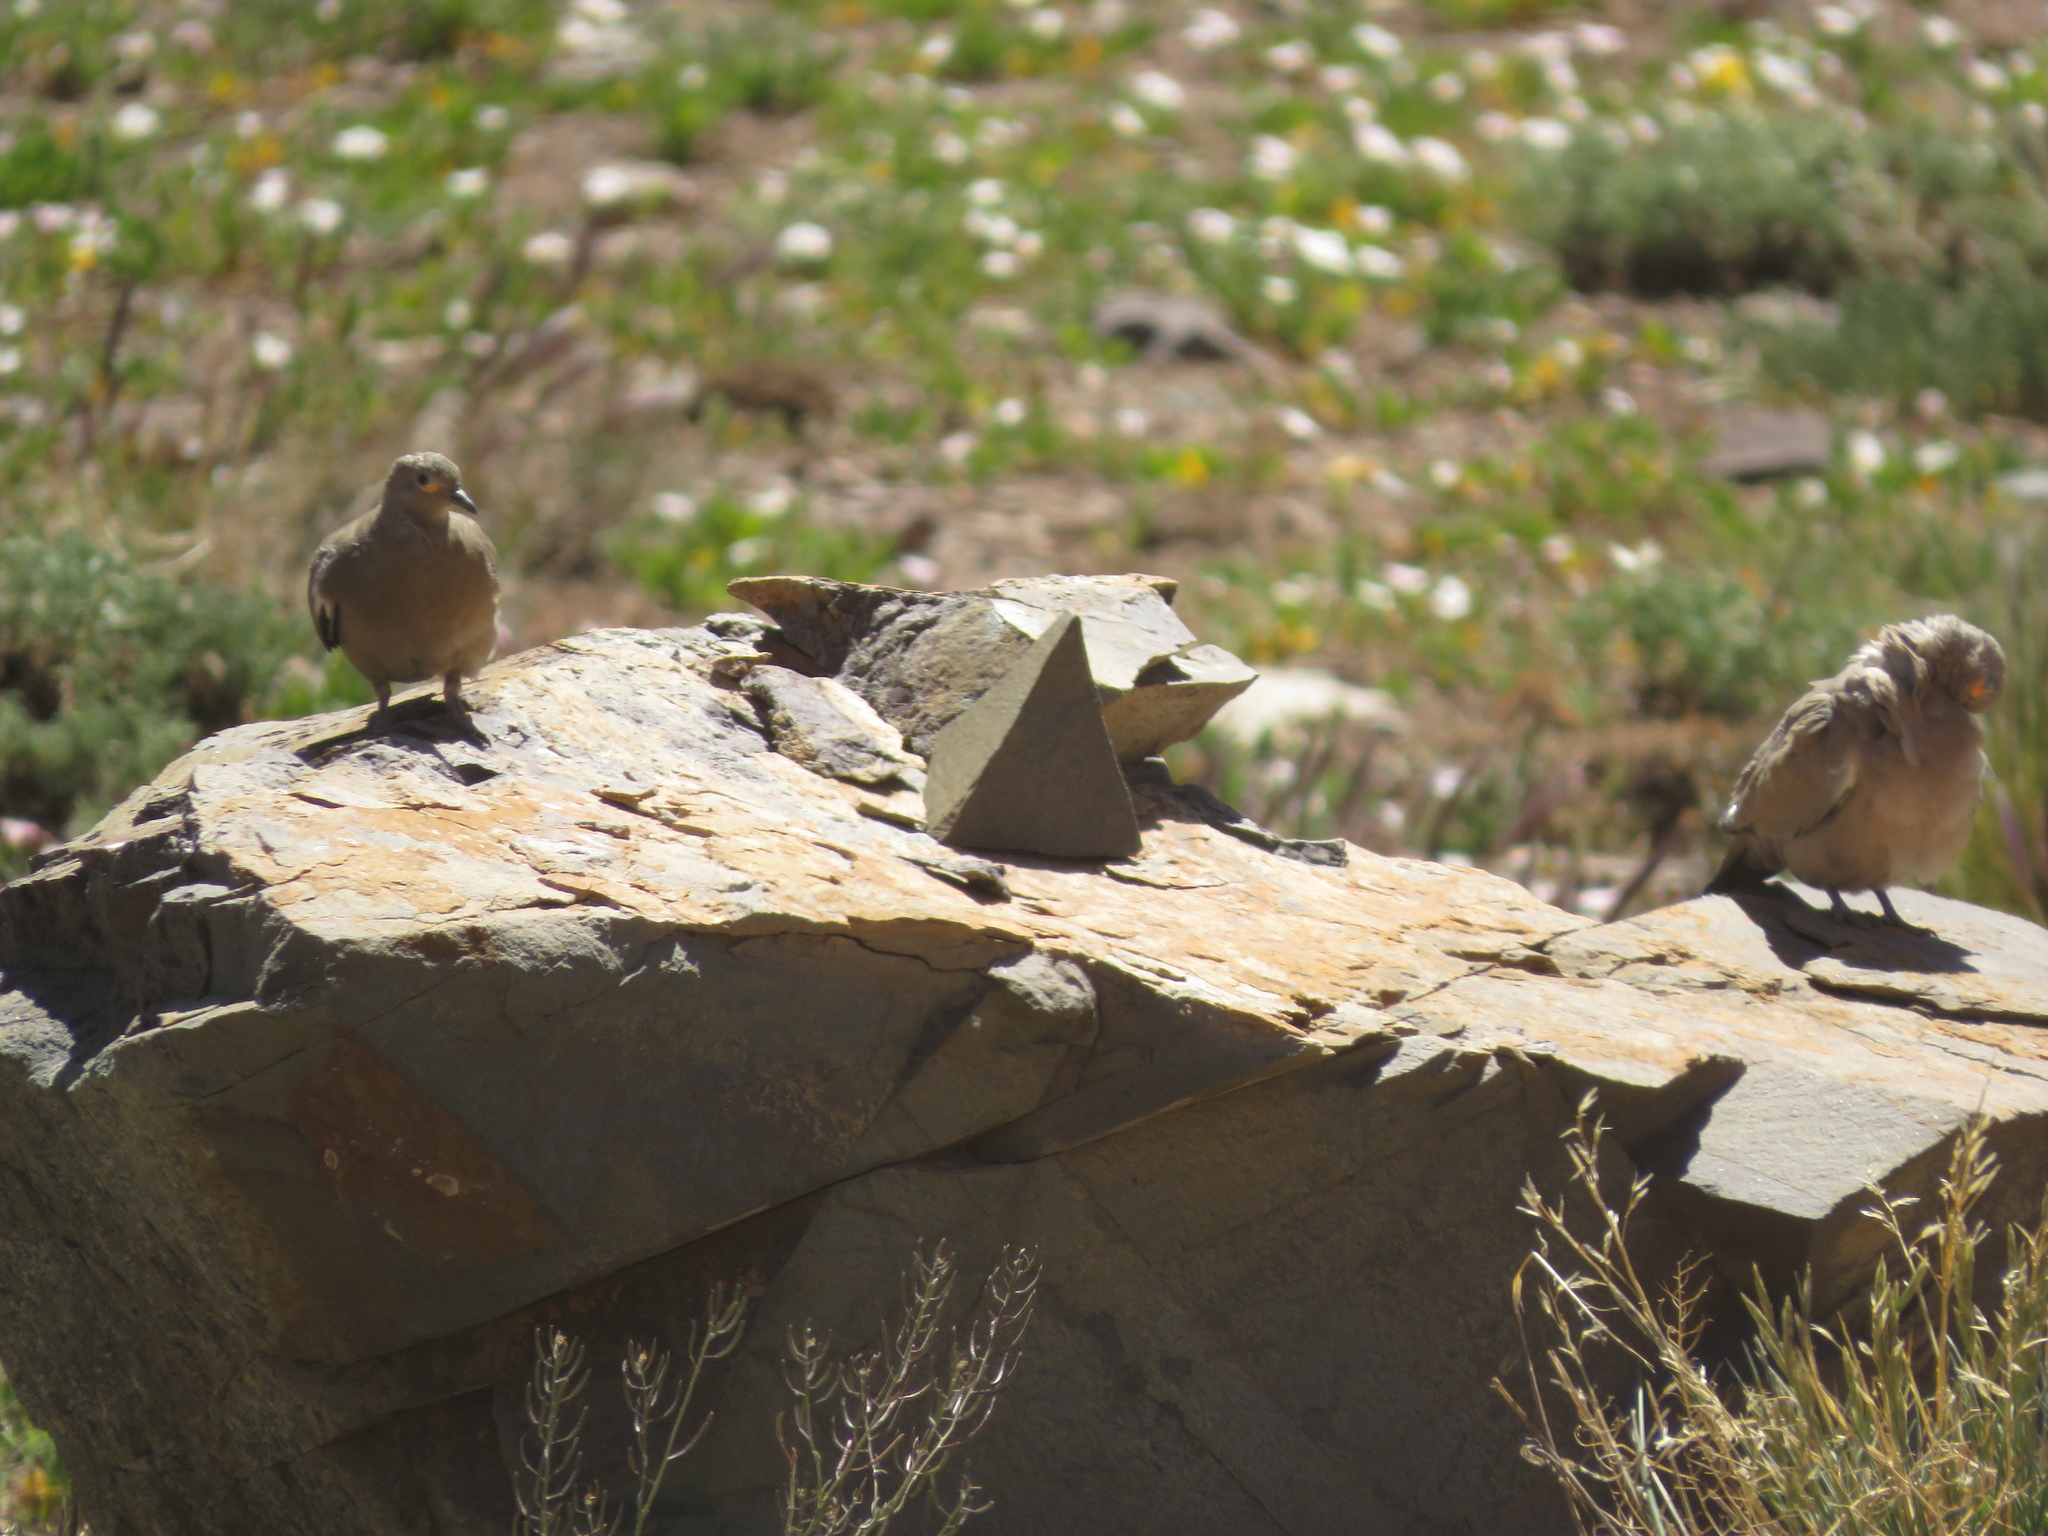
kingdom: Animalia
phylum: Chordata
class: Aves
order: Columbiformes
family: Columbidae
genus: Metriopelia
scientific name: Metriopelia melanoptera
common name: Black-winged ground dove
